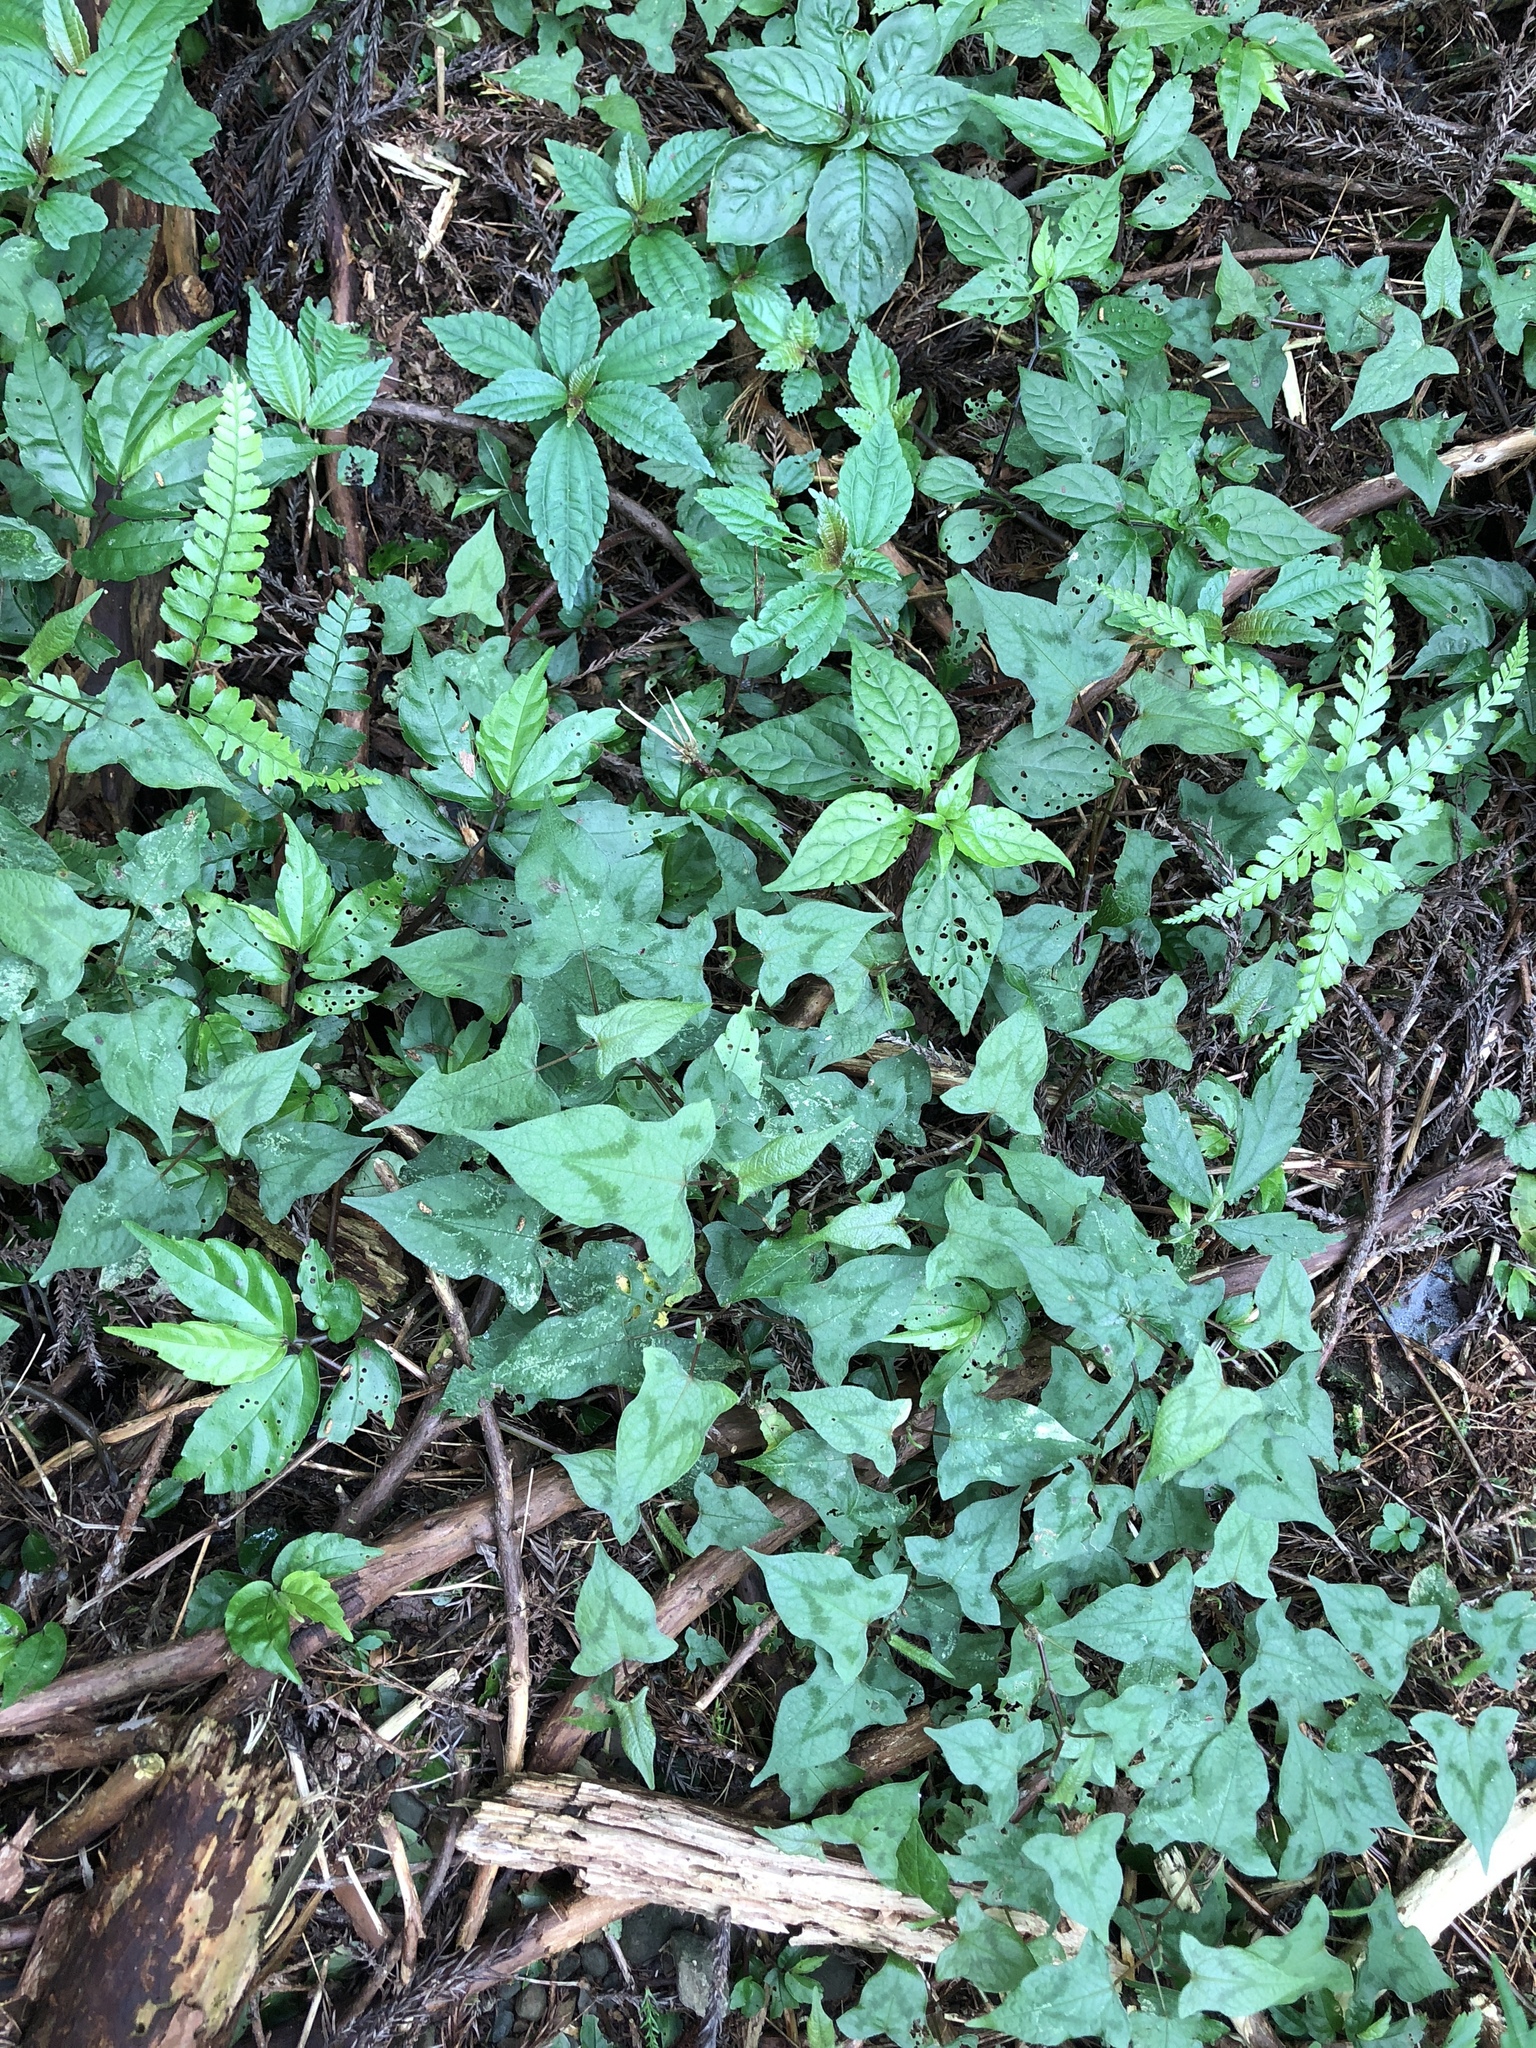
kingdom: Plantae
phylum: Tracheophyta
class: Magnoliopsida
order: Caryophyllales
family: Polygonaceae
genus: Persicaria
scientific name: Persicaria biconvexa
